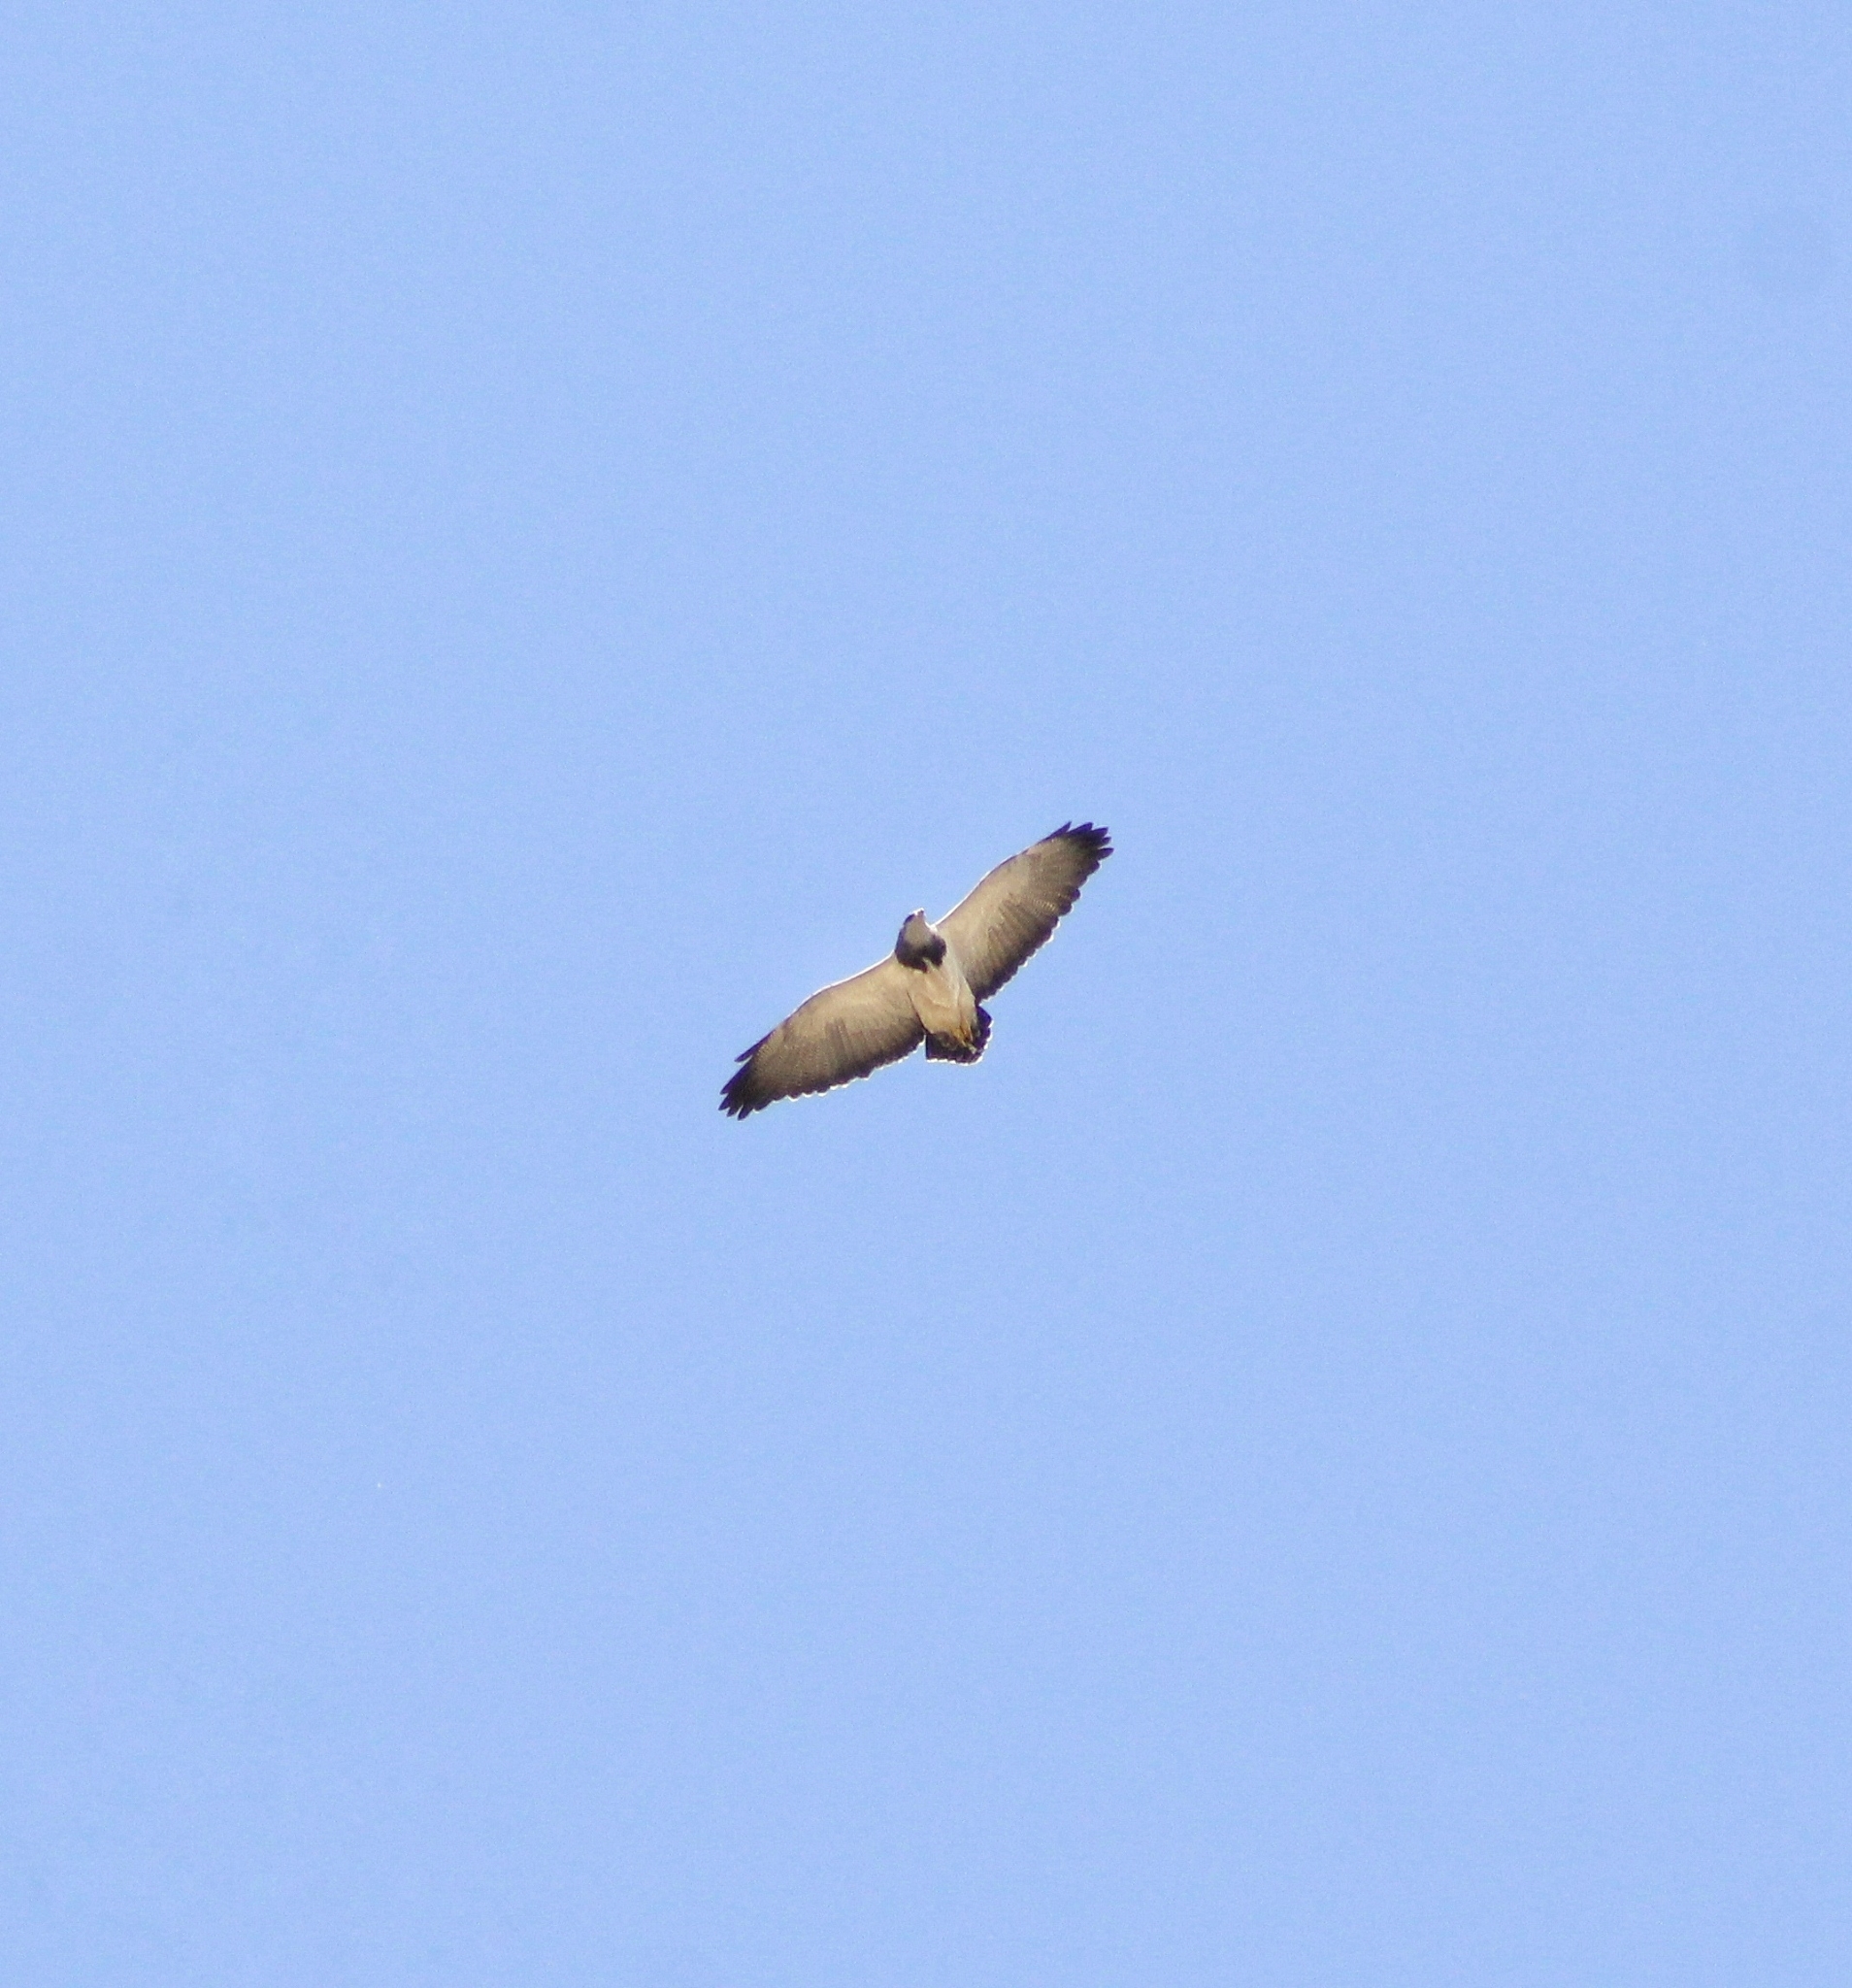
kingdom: Animalia
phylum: Chordata
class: Aves
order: Accipitriformes
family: Accipitridae
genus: Geranoaetus
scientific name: Geranoaetus melanoleucus
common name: Black-chested buzzard-eagle
